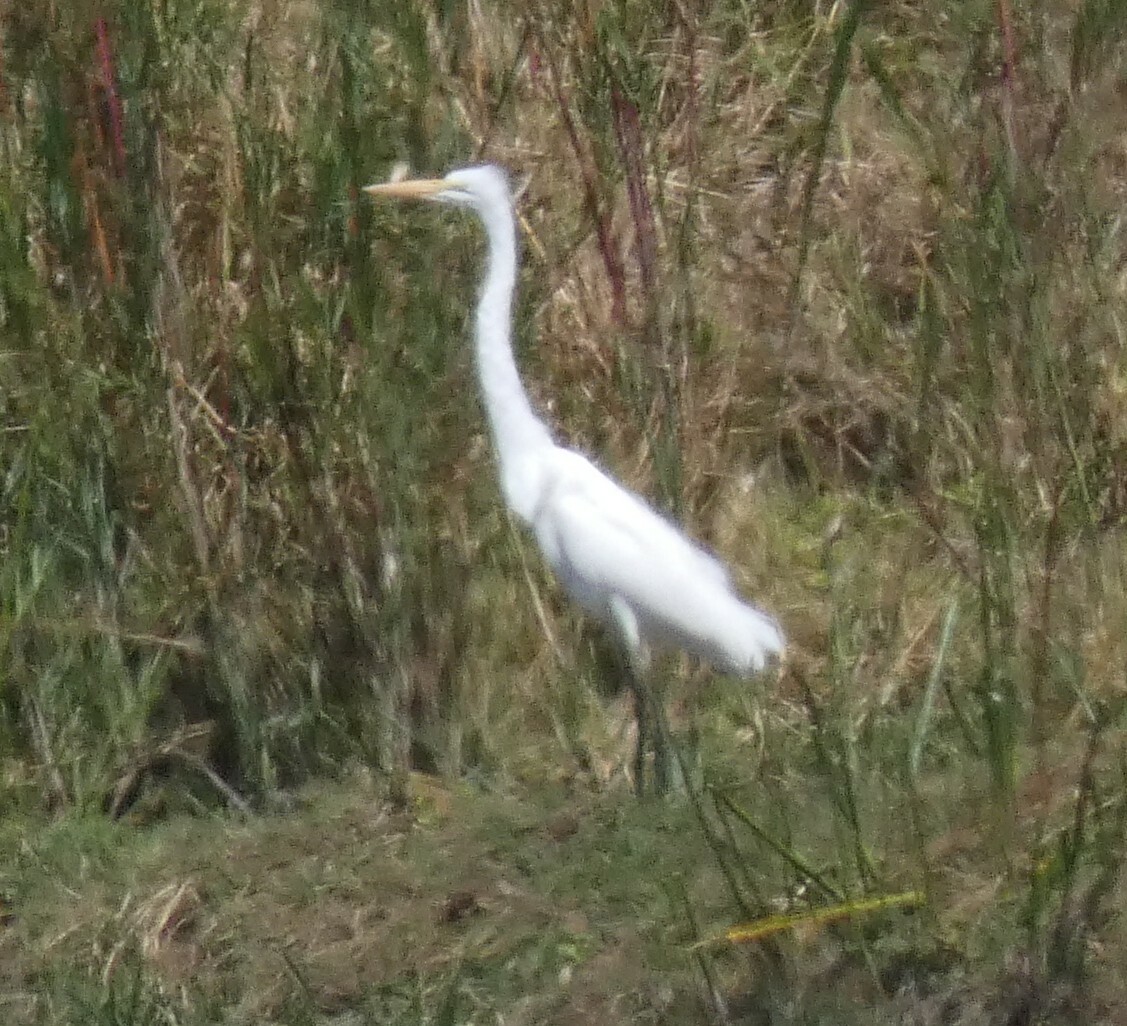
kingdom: Animalia
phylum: Chordata
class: Aves
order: Pelecaniformes
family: Ardeidae
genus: Ardea
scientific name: Ardea alba
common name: Great egret
